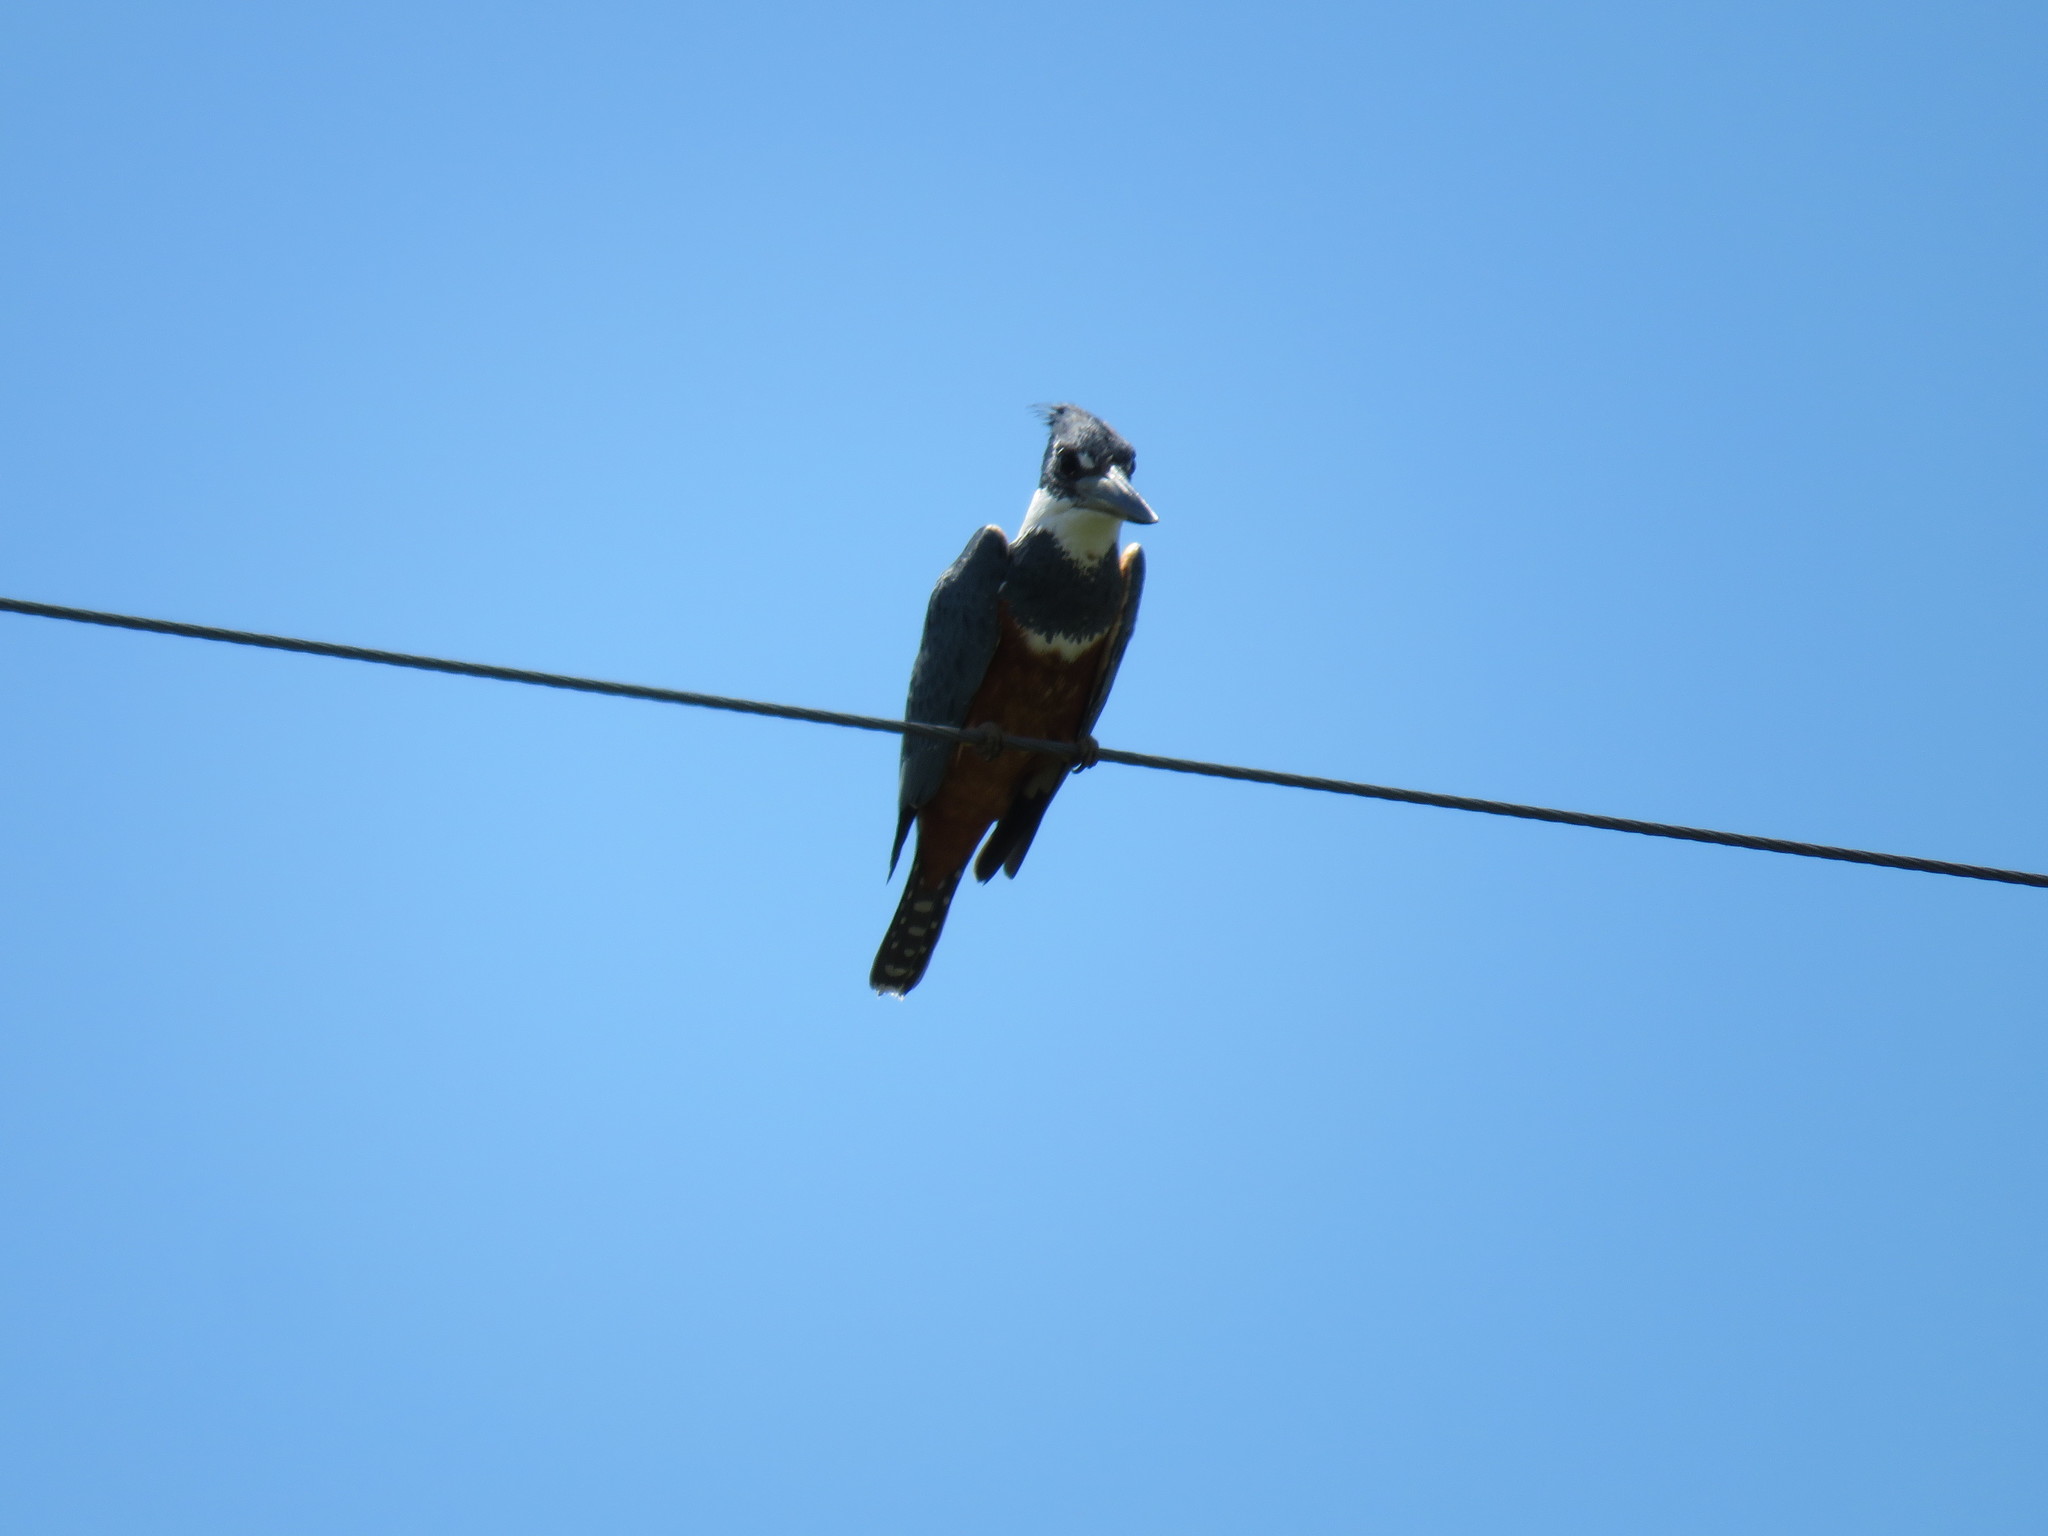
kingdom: Animalia
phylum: Chordata
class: Aves
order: Coraciiformes
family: Alcedinidae
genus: Megaceryle
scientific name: Megaceryle torquata
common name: Ringed kingfisher
